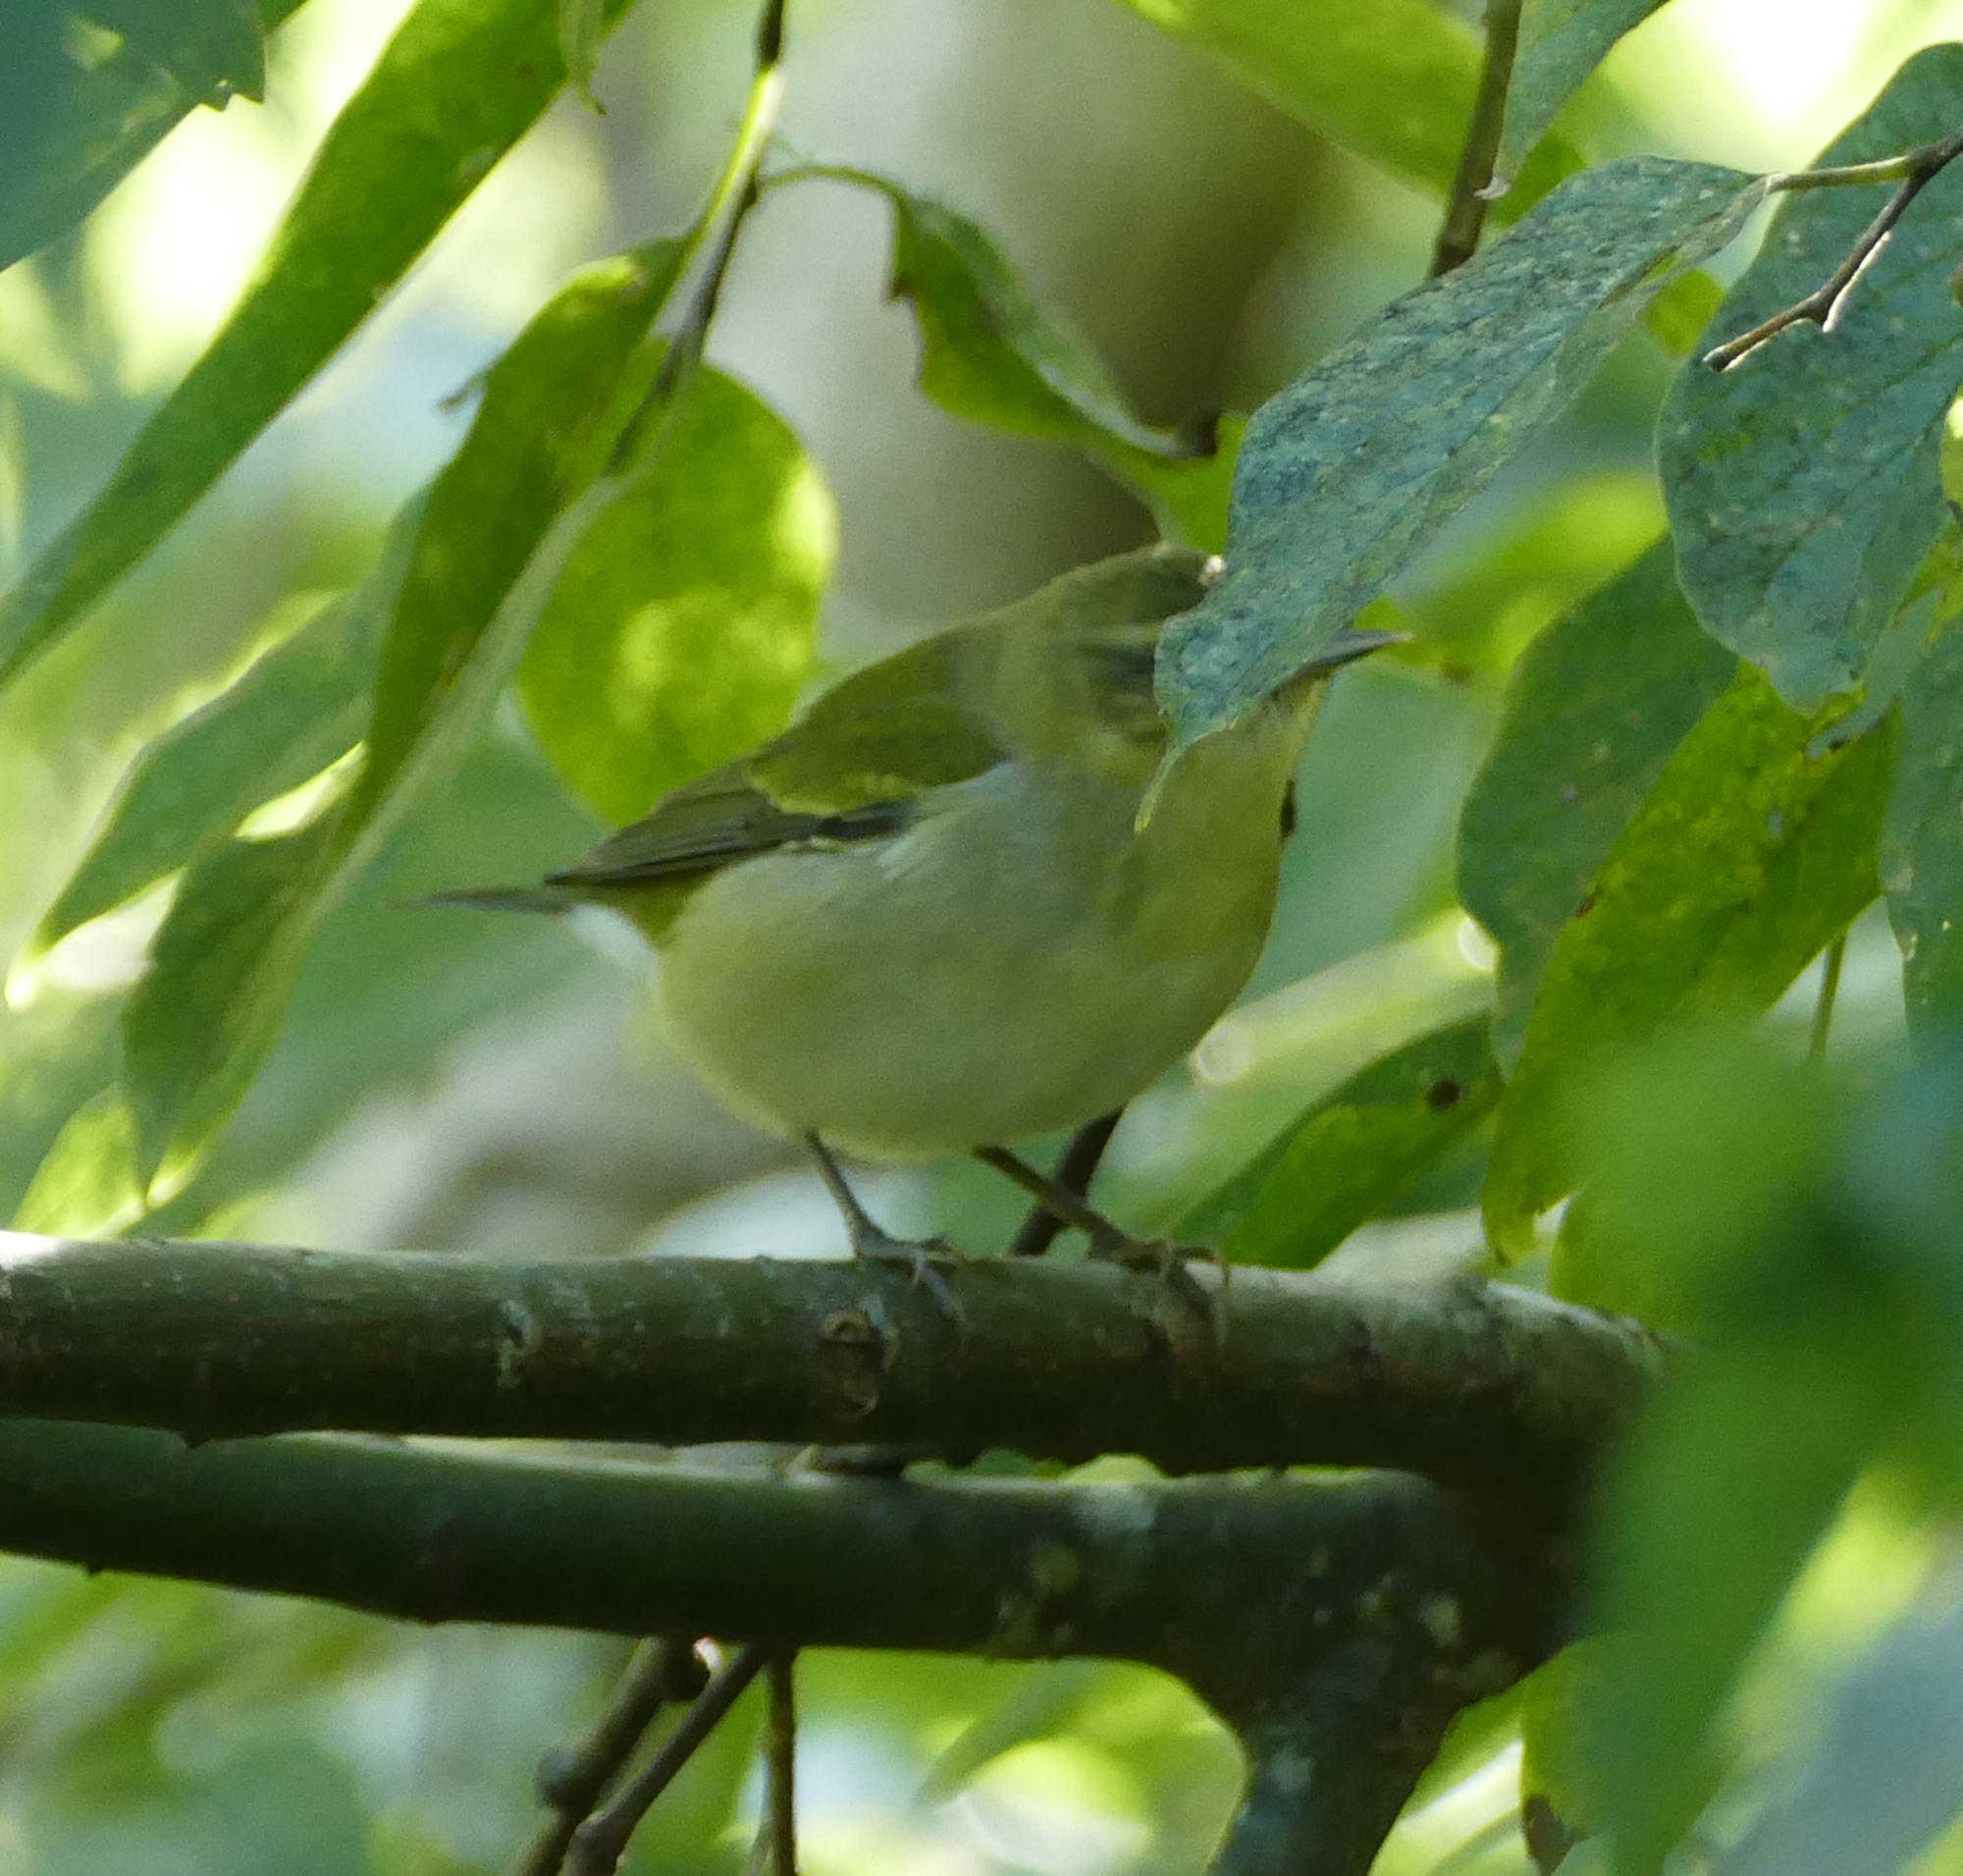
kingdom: Animalia
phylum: Chordata
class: Aves
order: Passeriformes
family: Parulidae
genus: Leiothlypis
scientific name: Leiothlypis peregrina
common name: Tennessee warbler
